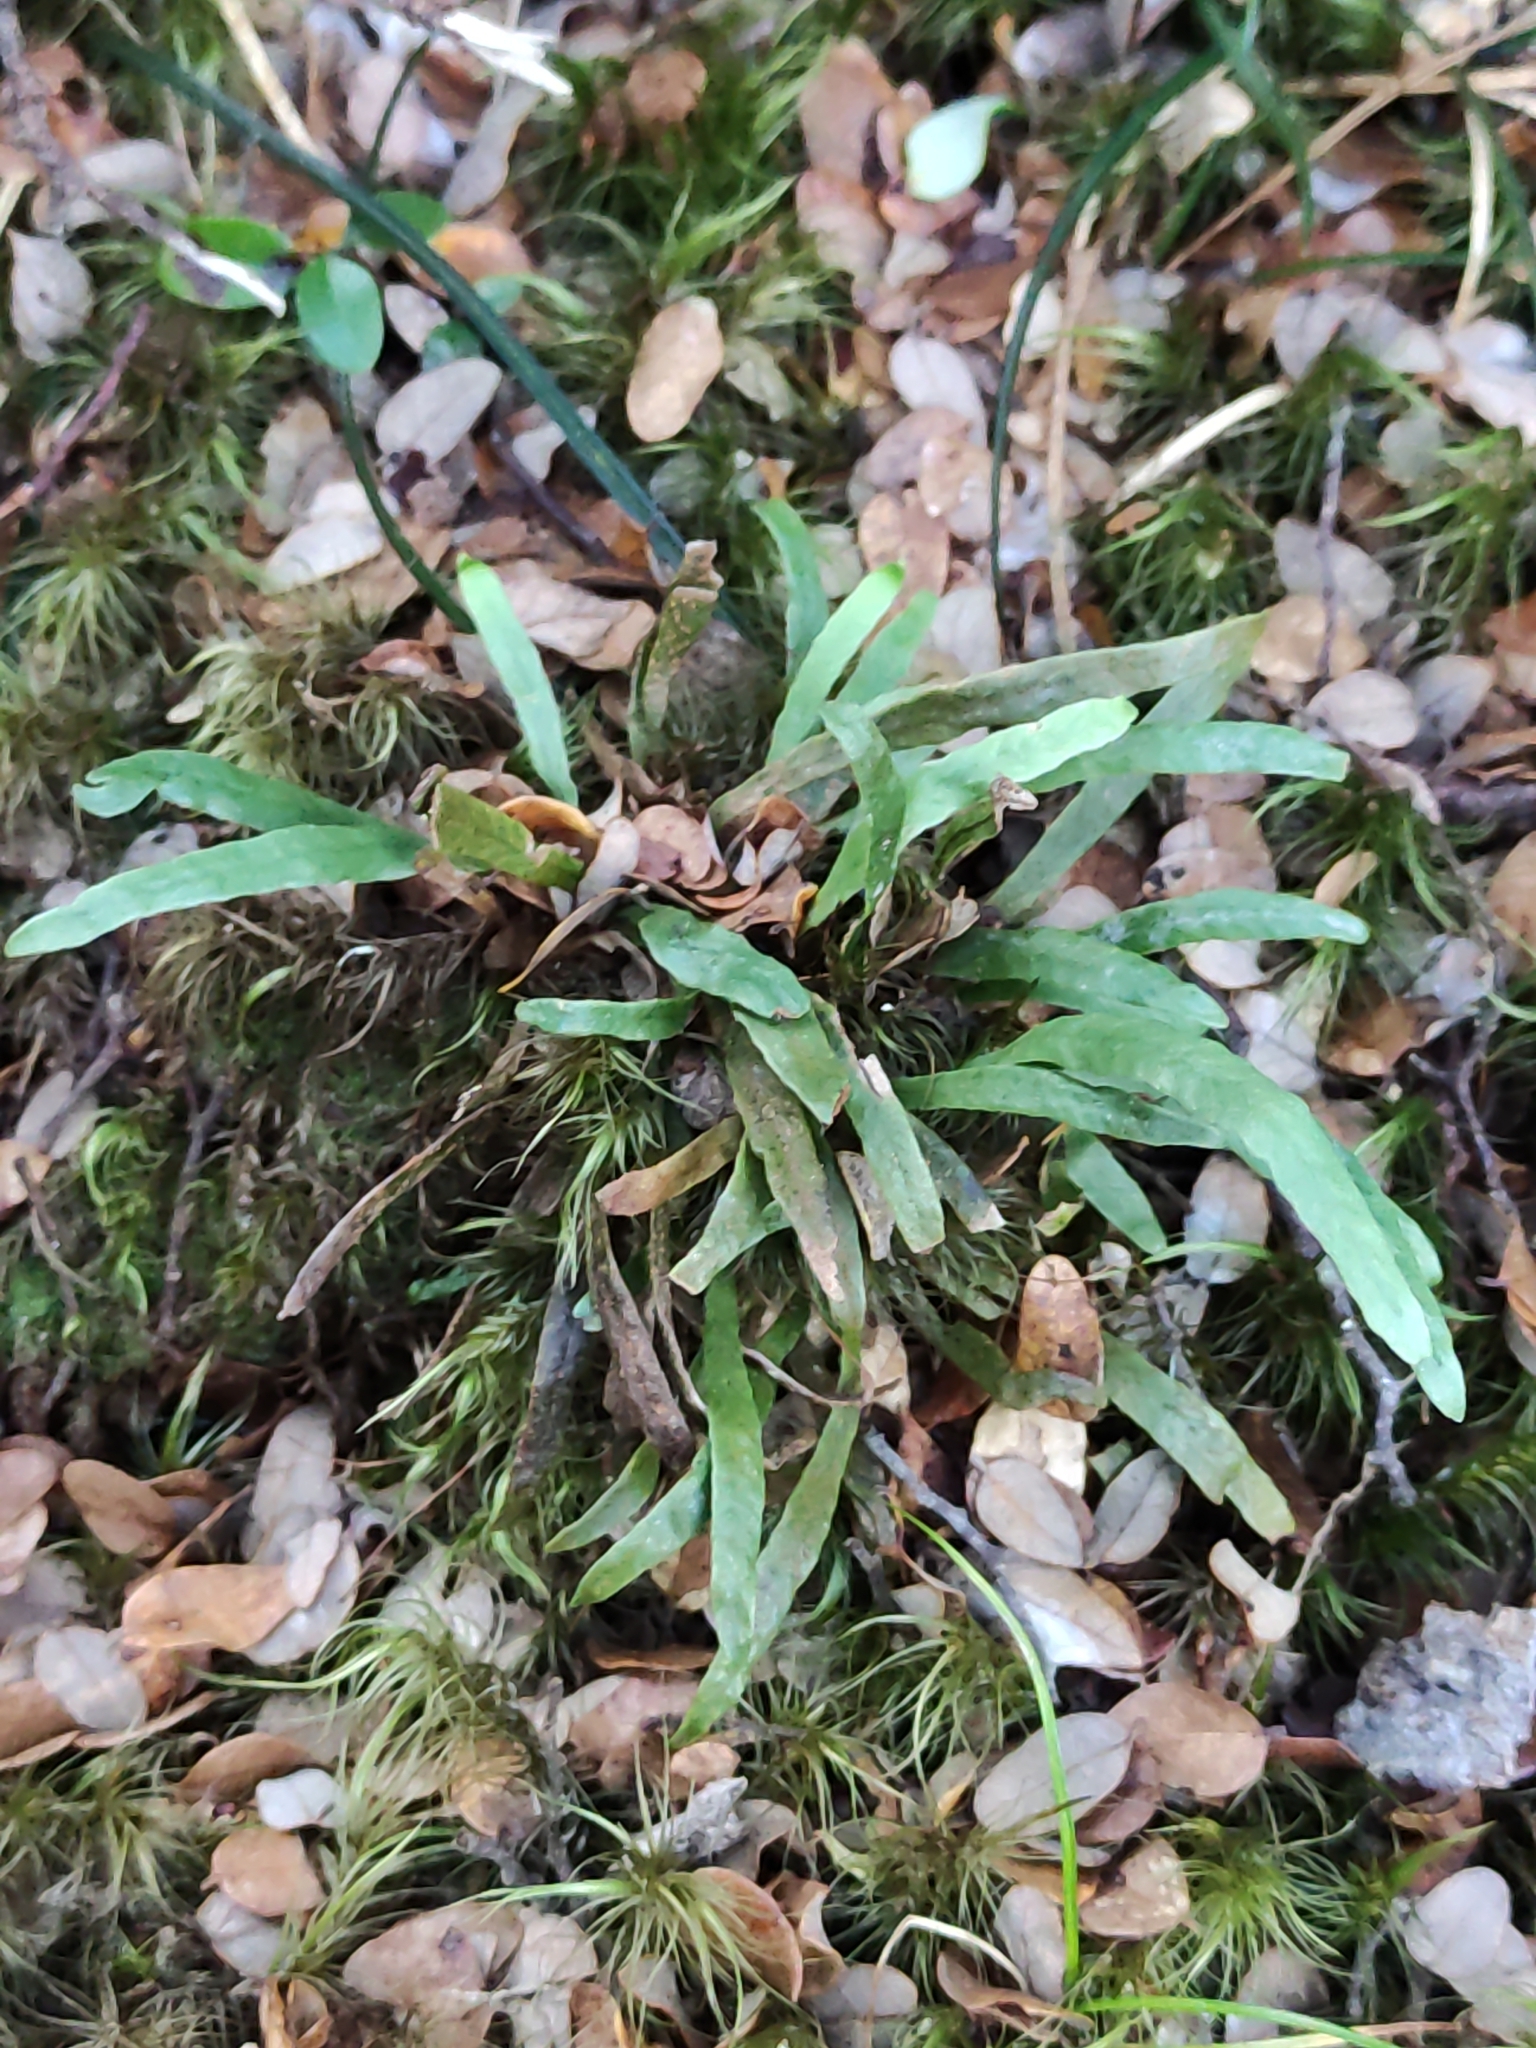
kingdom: Plantae
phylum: Tracheophyta
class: Polypodiopsida
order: Polypodiales
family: Polypodiaceae
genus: Notogrammitis
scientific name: Notogrammitis billardierei
